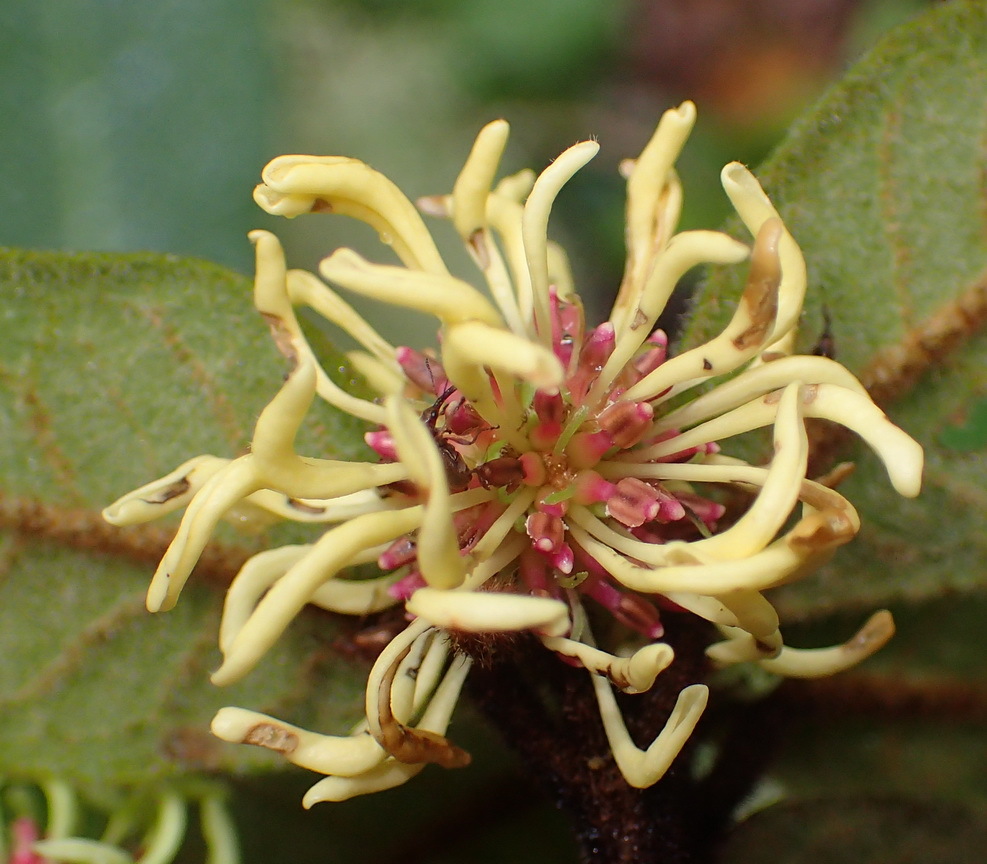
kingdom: Plantae
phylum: Tracheophyta
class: Magnoliopsida
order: Saxifragales
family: Hamamelidaceae
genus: Trichocladus
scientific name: Trichocladus crinitus
